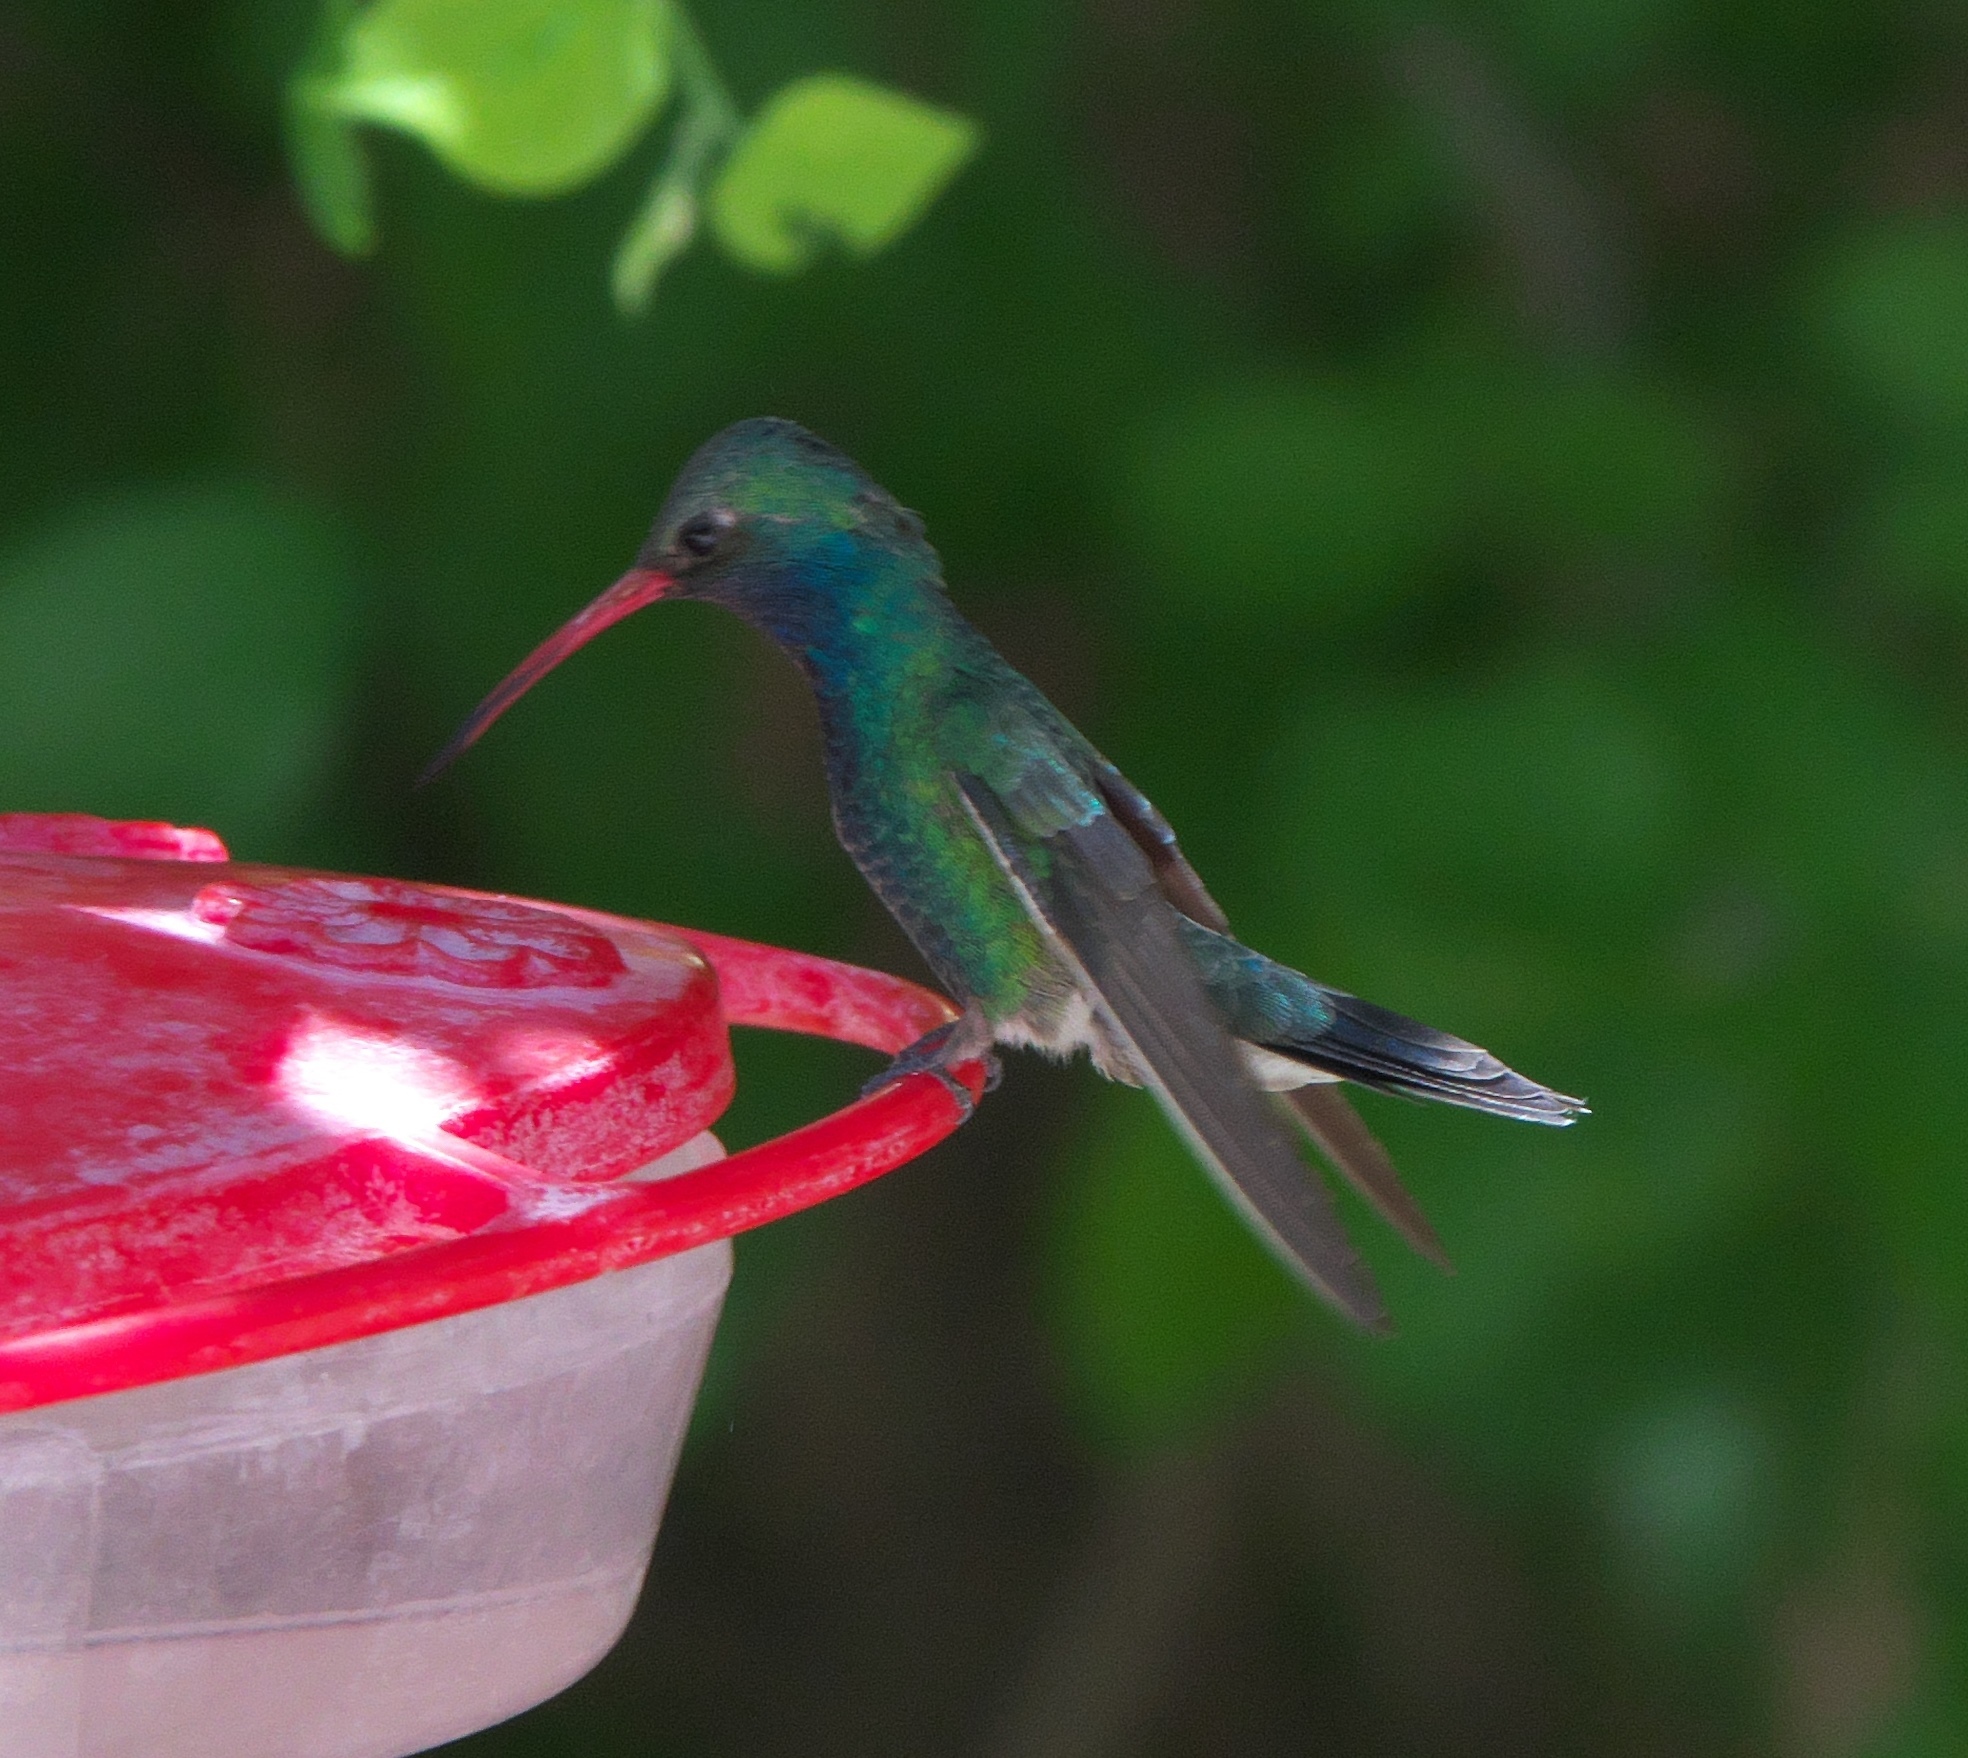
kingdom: Animalia
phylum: Chordata
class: Aves
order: Apodiformes
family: Trochilidae
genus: Cynanthus
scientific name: Cynanthus latirostris
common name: Broad-billed hummingbird
